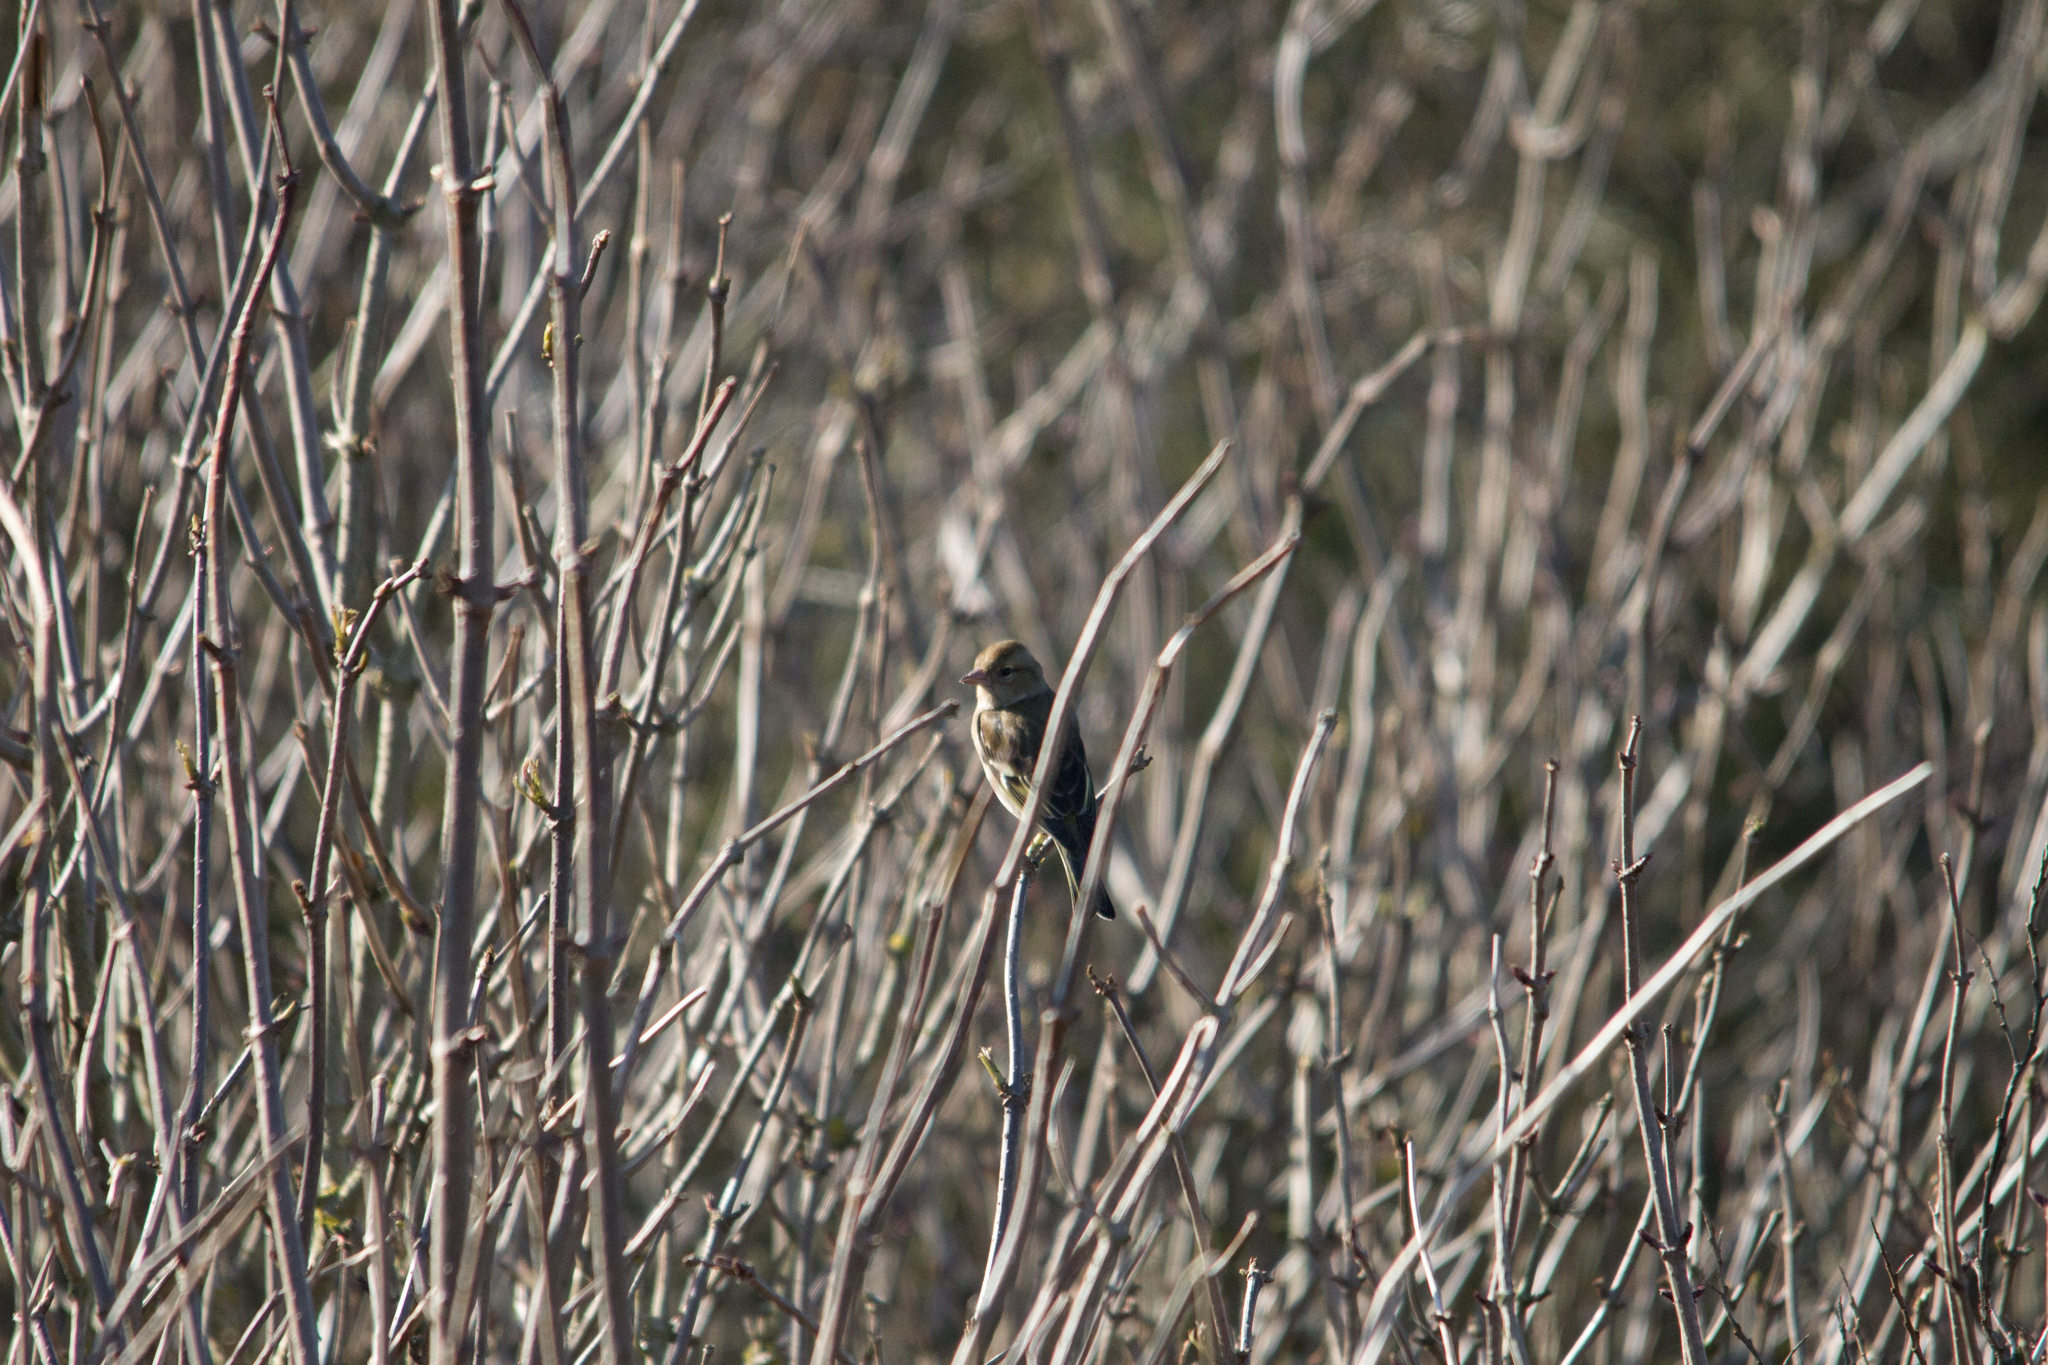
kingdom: Animalia
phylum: Chordata
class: Aves
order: Passeriformes
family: Fringillidae
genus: Fringilla
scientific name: Fringilla coelebs
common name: Common chaffinch
